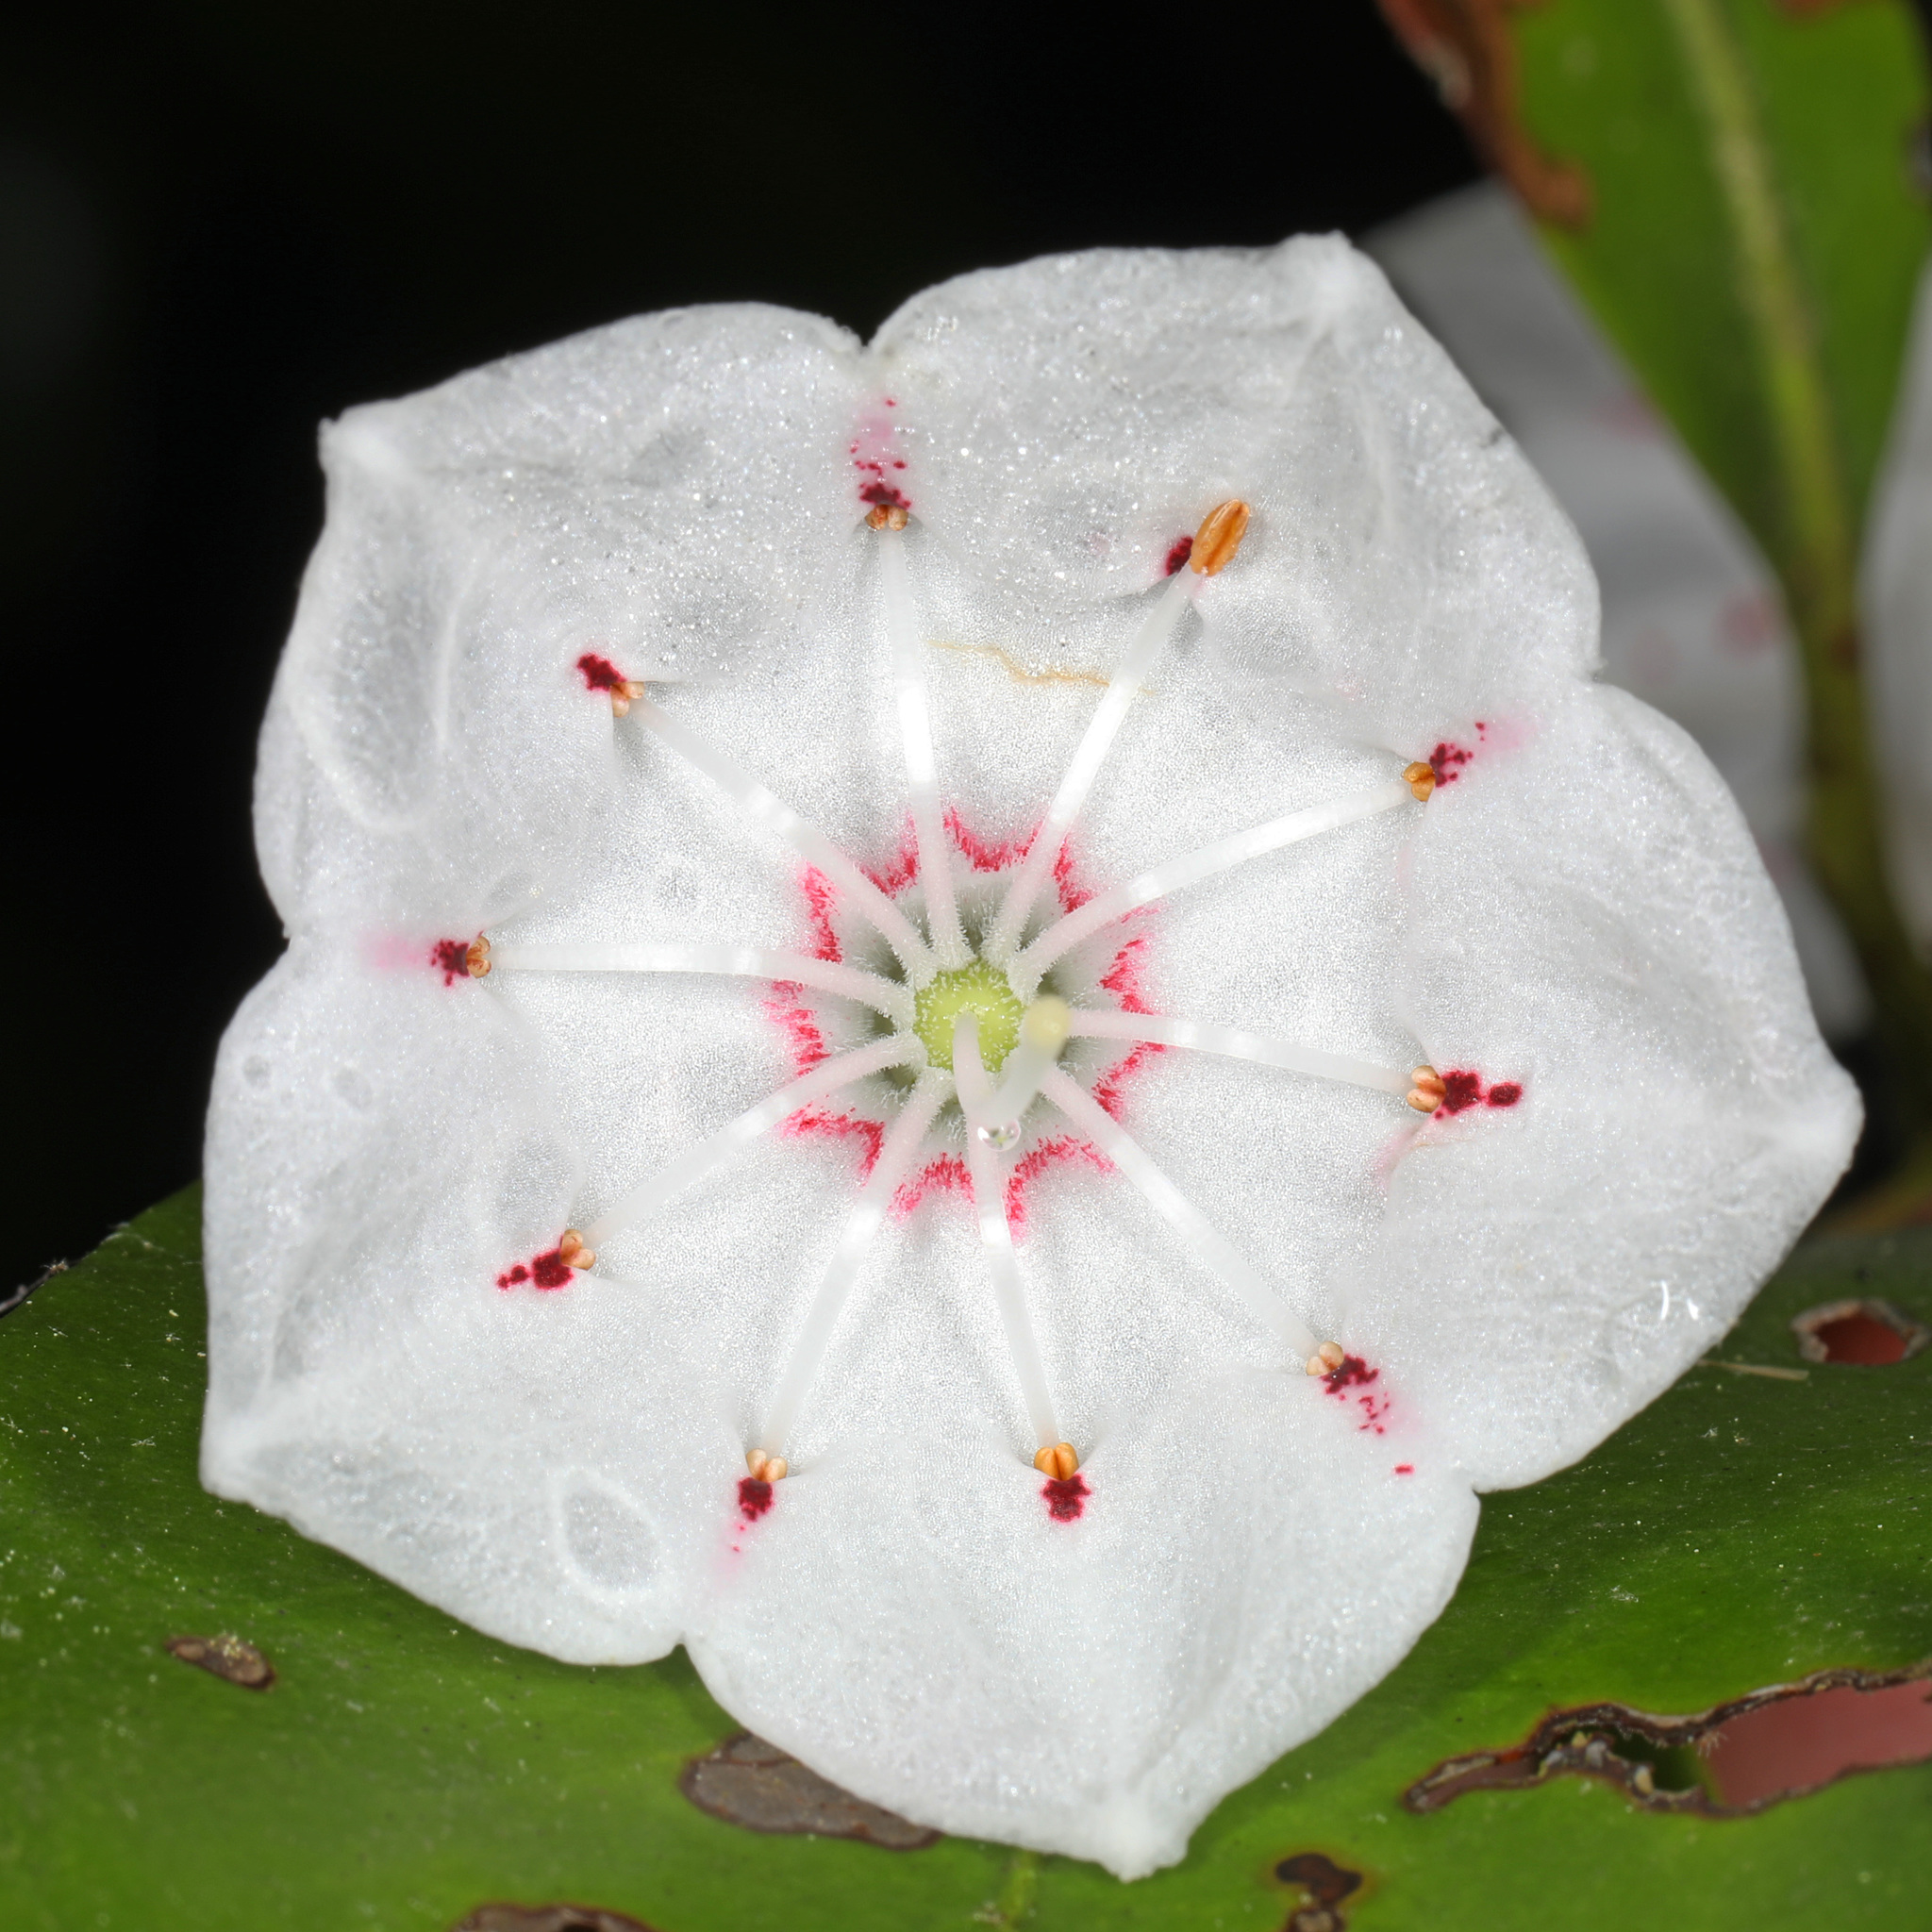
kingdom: Plantae
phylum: Tracheophyta
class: Magnoliopsida
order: Ericales
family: Ericaceae
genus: Kalmia
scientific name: Kalmia latifolia
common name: Mountain-laurel
